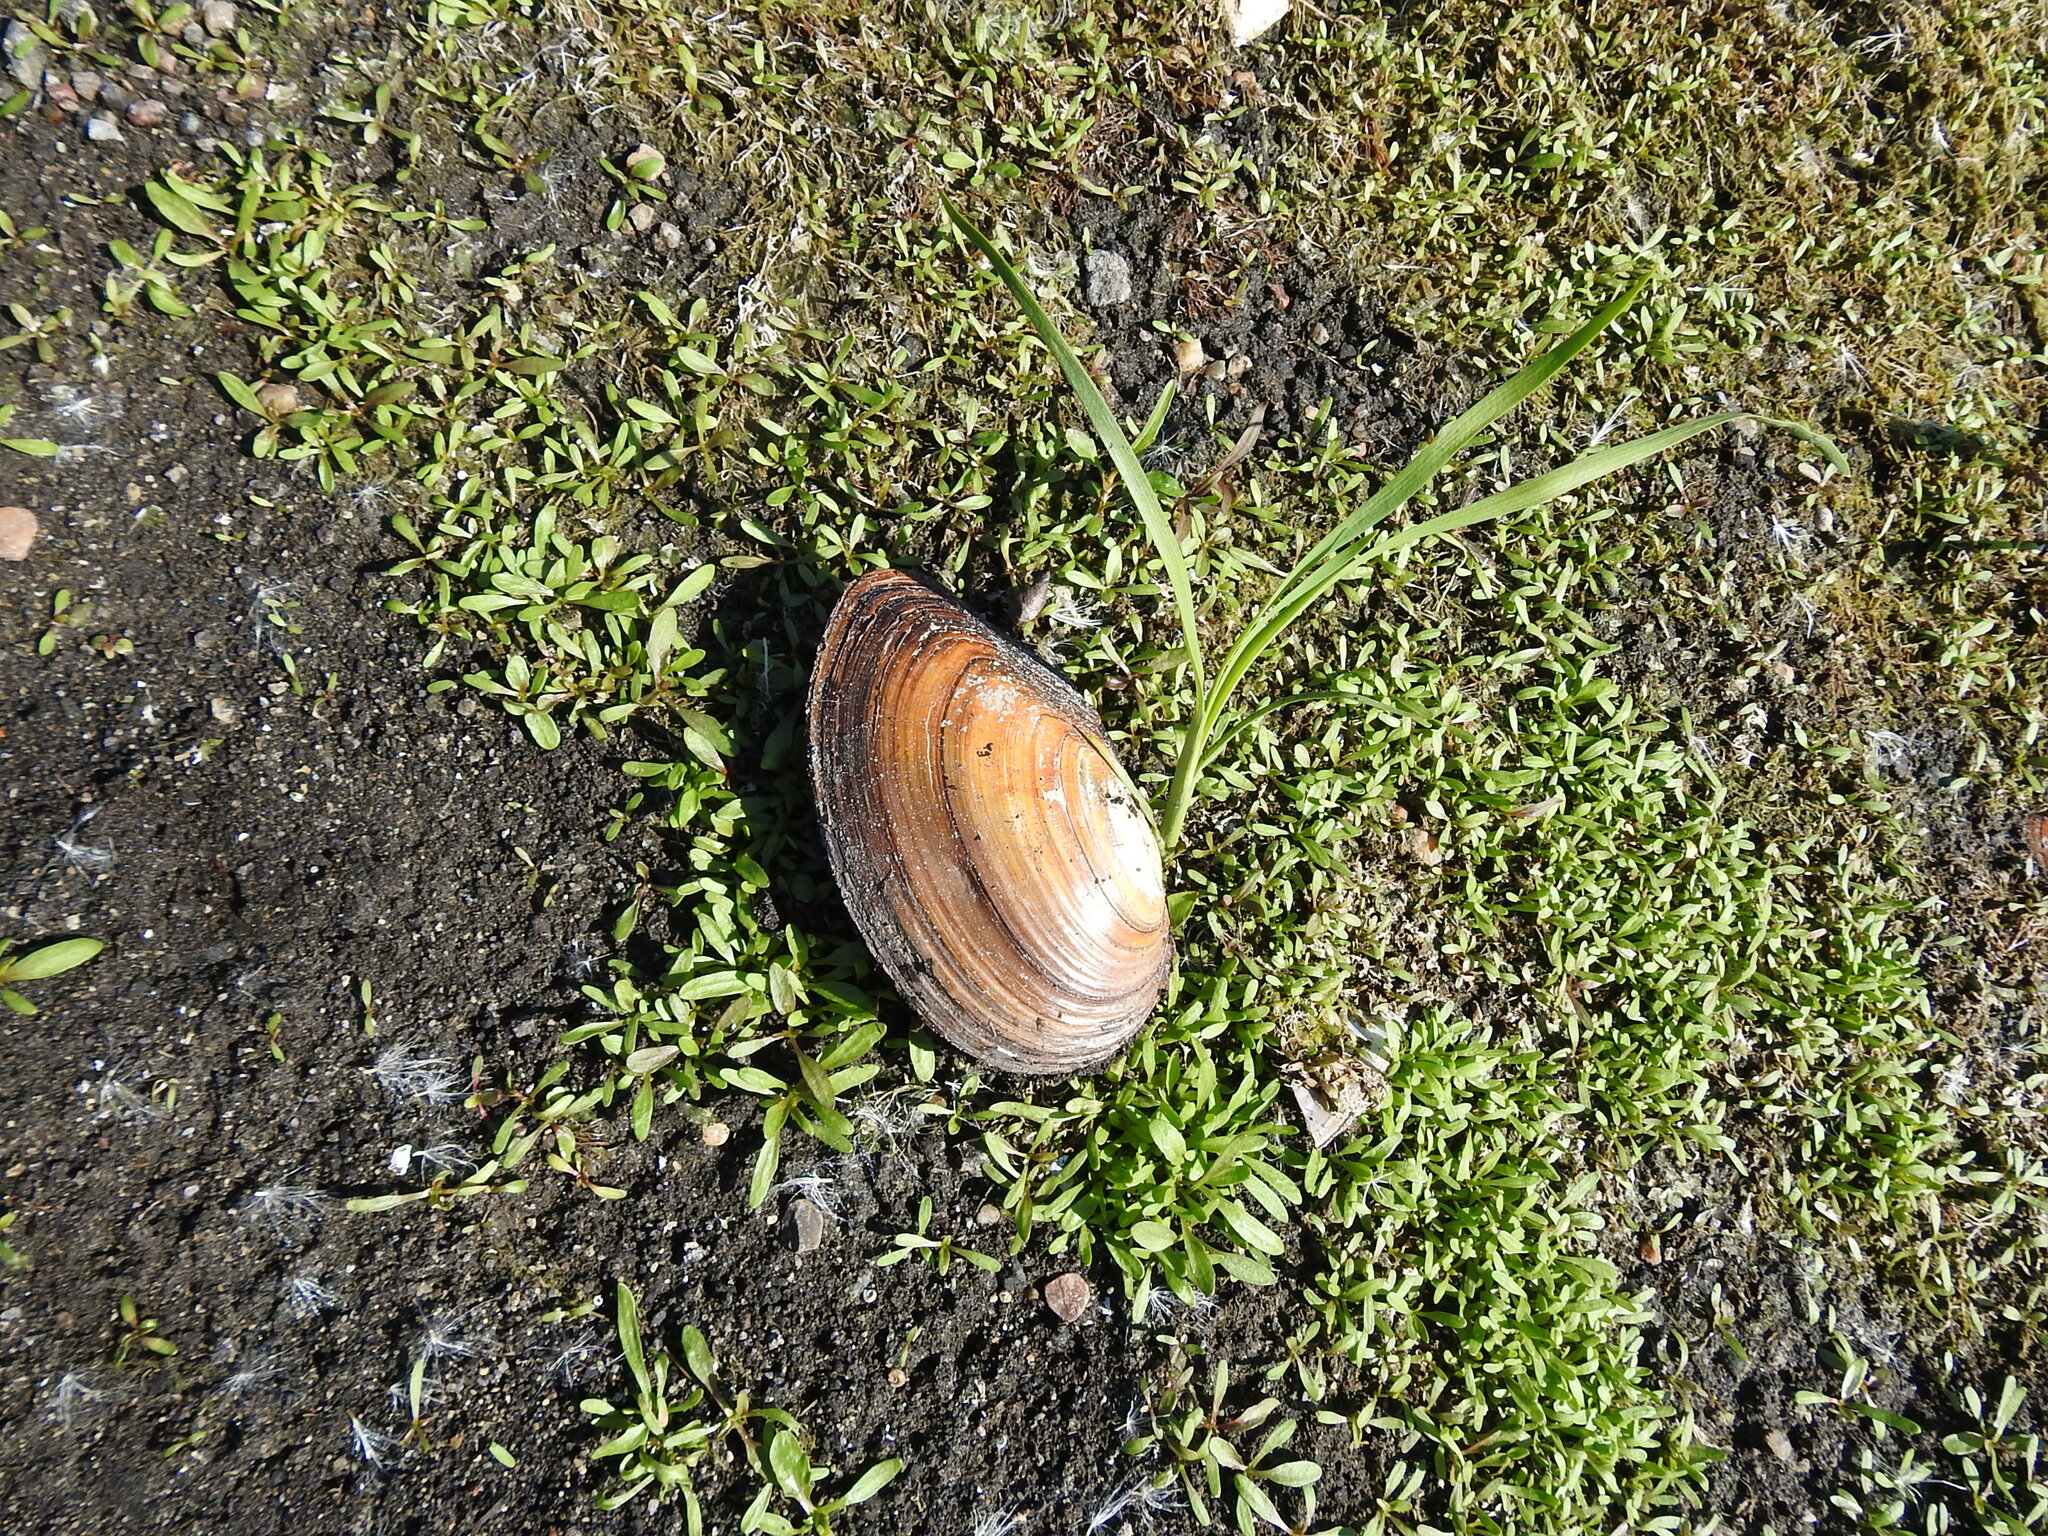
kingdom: Animalia
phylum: Mollusca
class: Bivalvia
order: Unionida
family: Unionidae
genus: Anodonta
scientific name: Anodonta anatina
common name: Duck mussel
